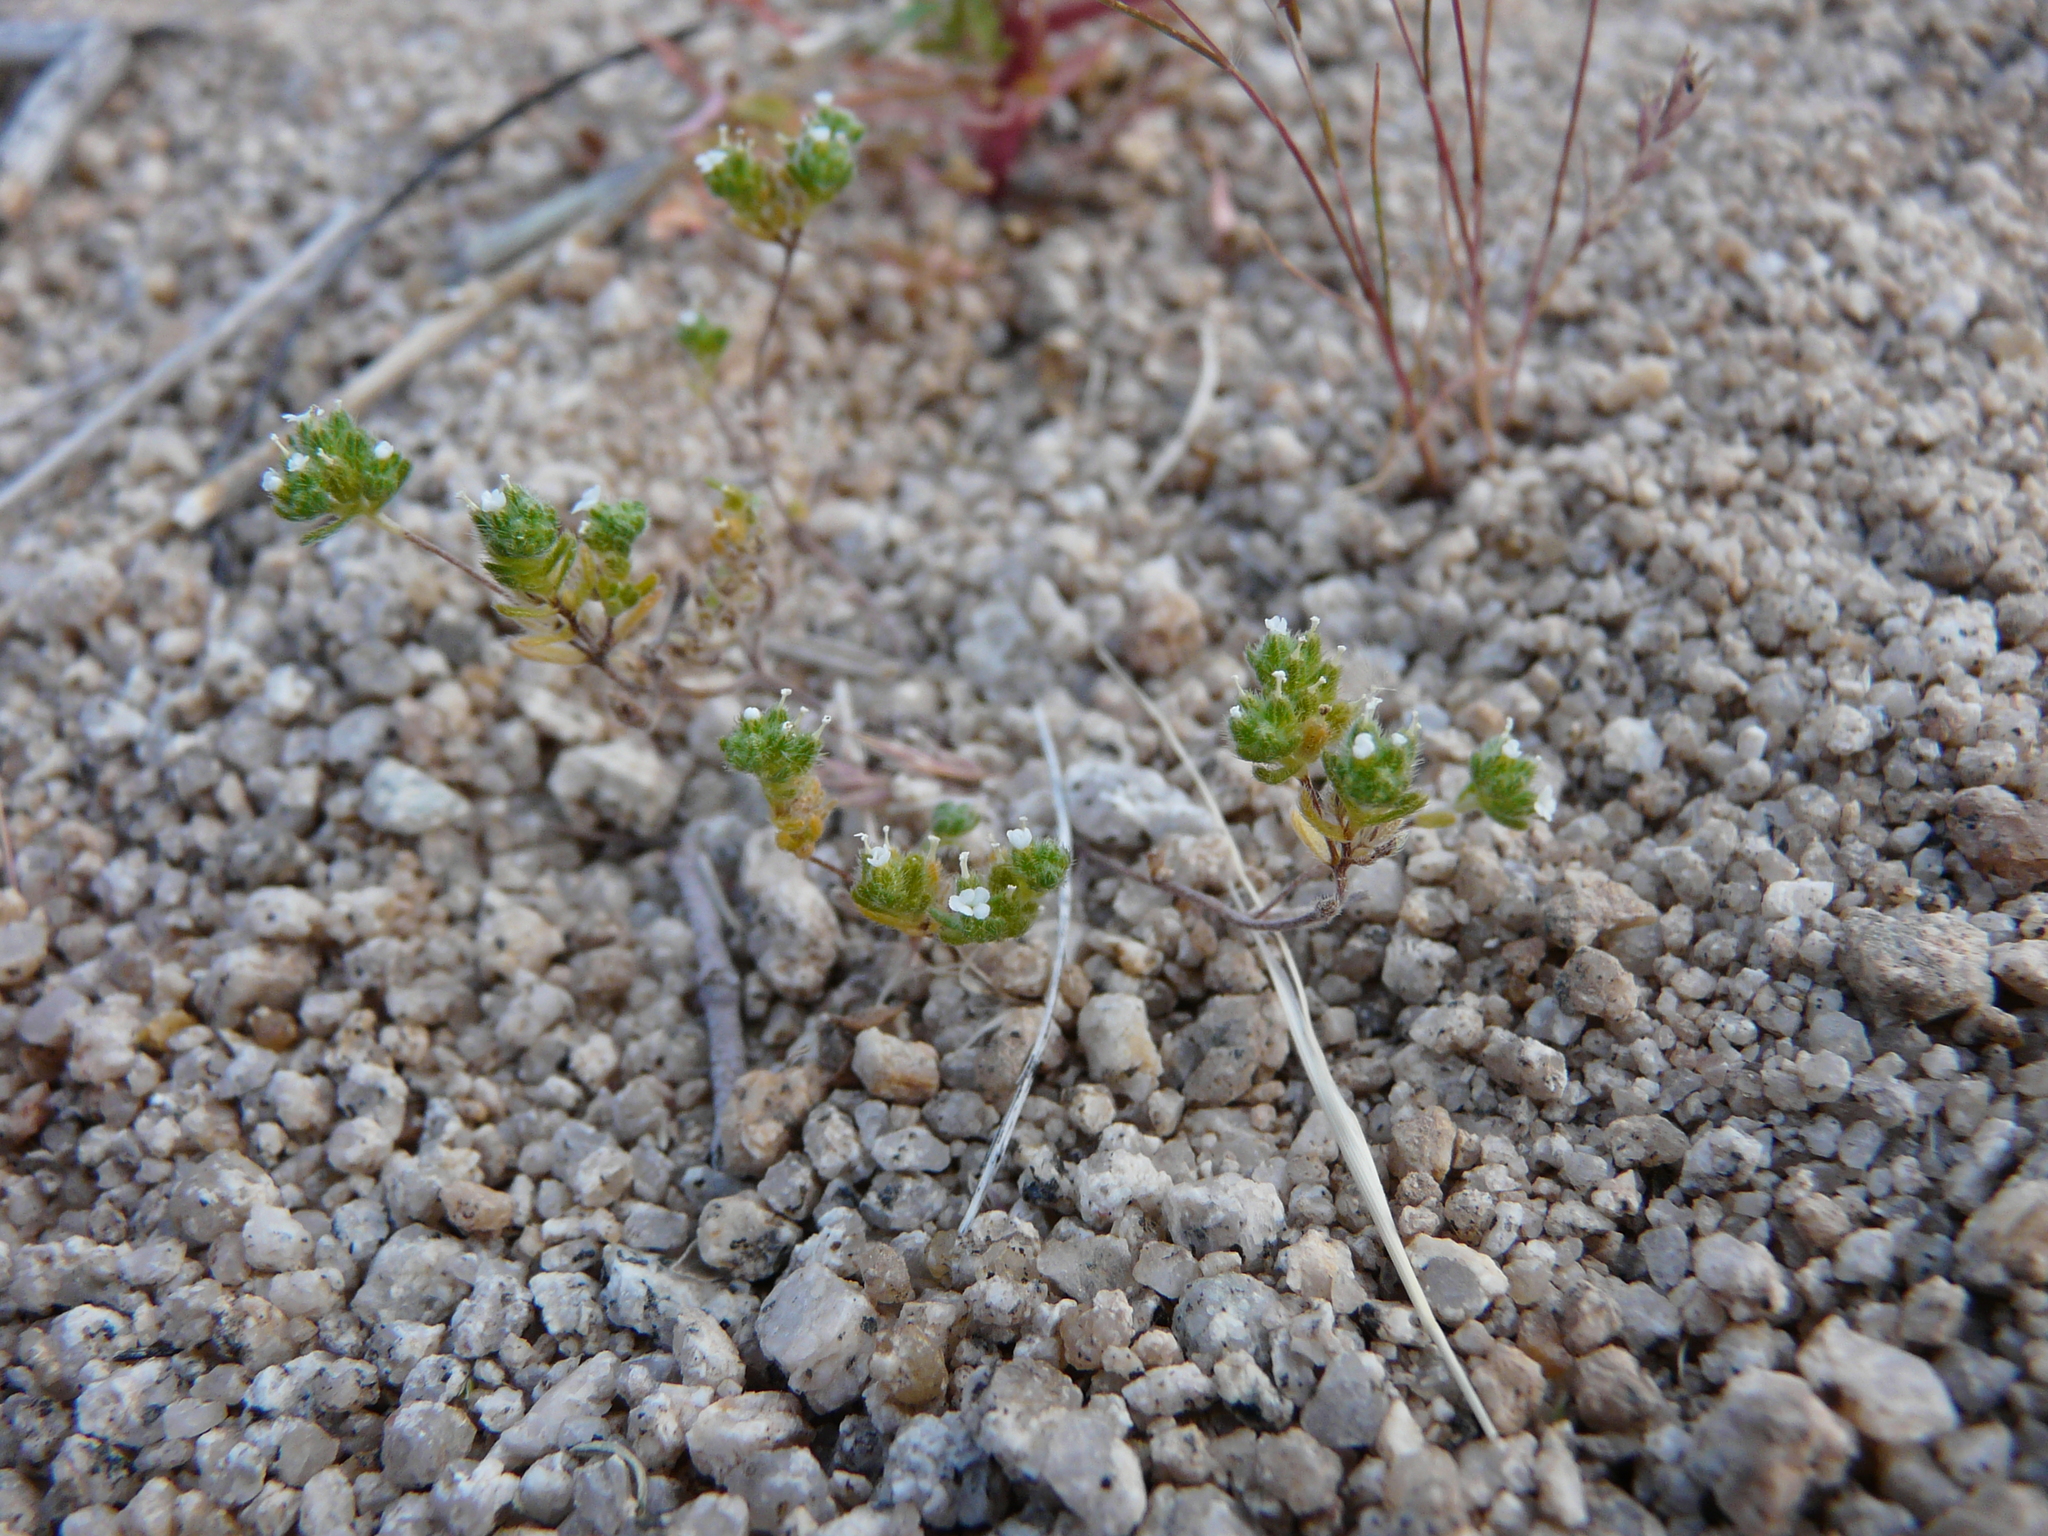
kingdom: Plantae
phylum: Tracheophyta
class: Magnoliopsida
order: Boraginales
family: Boraginaceae
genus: Eremocarya
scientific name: Eremocarya micrantha
